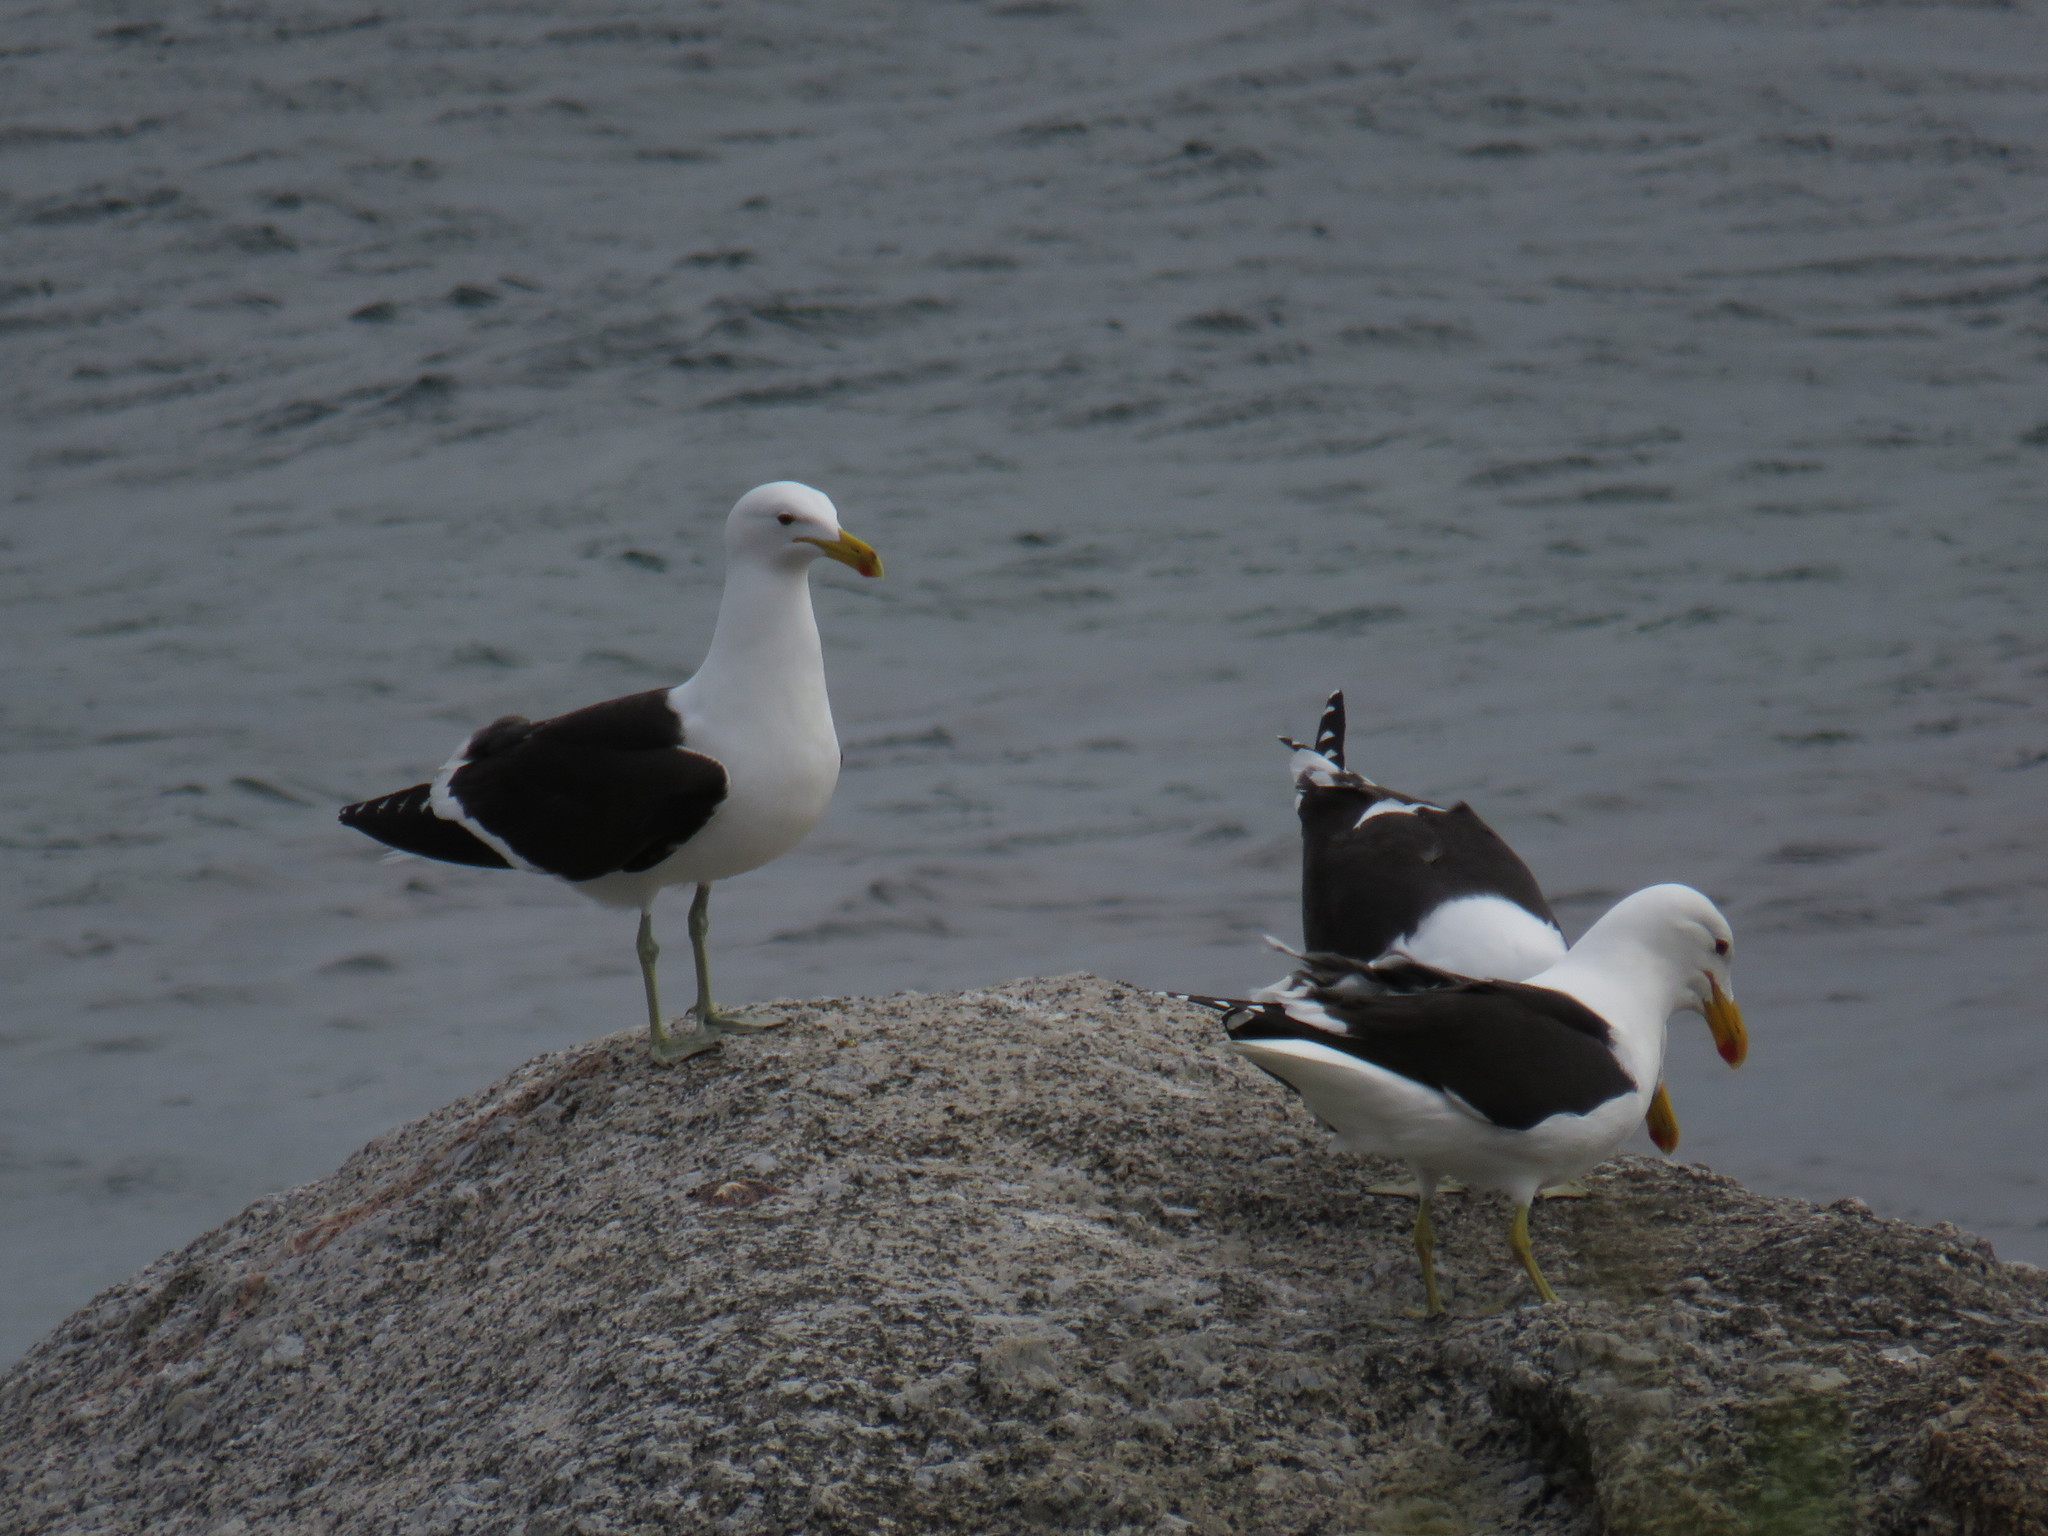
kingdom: Animalia
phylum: Chordata
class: Aves
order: Charadriiformes
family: Laridae
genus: Larus
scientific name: Larus dominicanus
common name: Kelp gull
